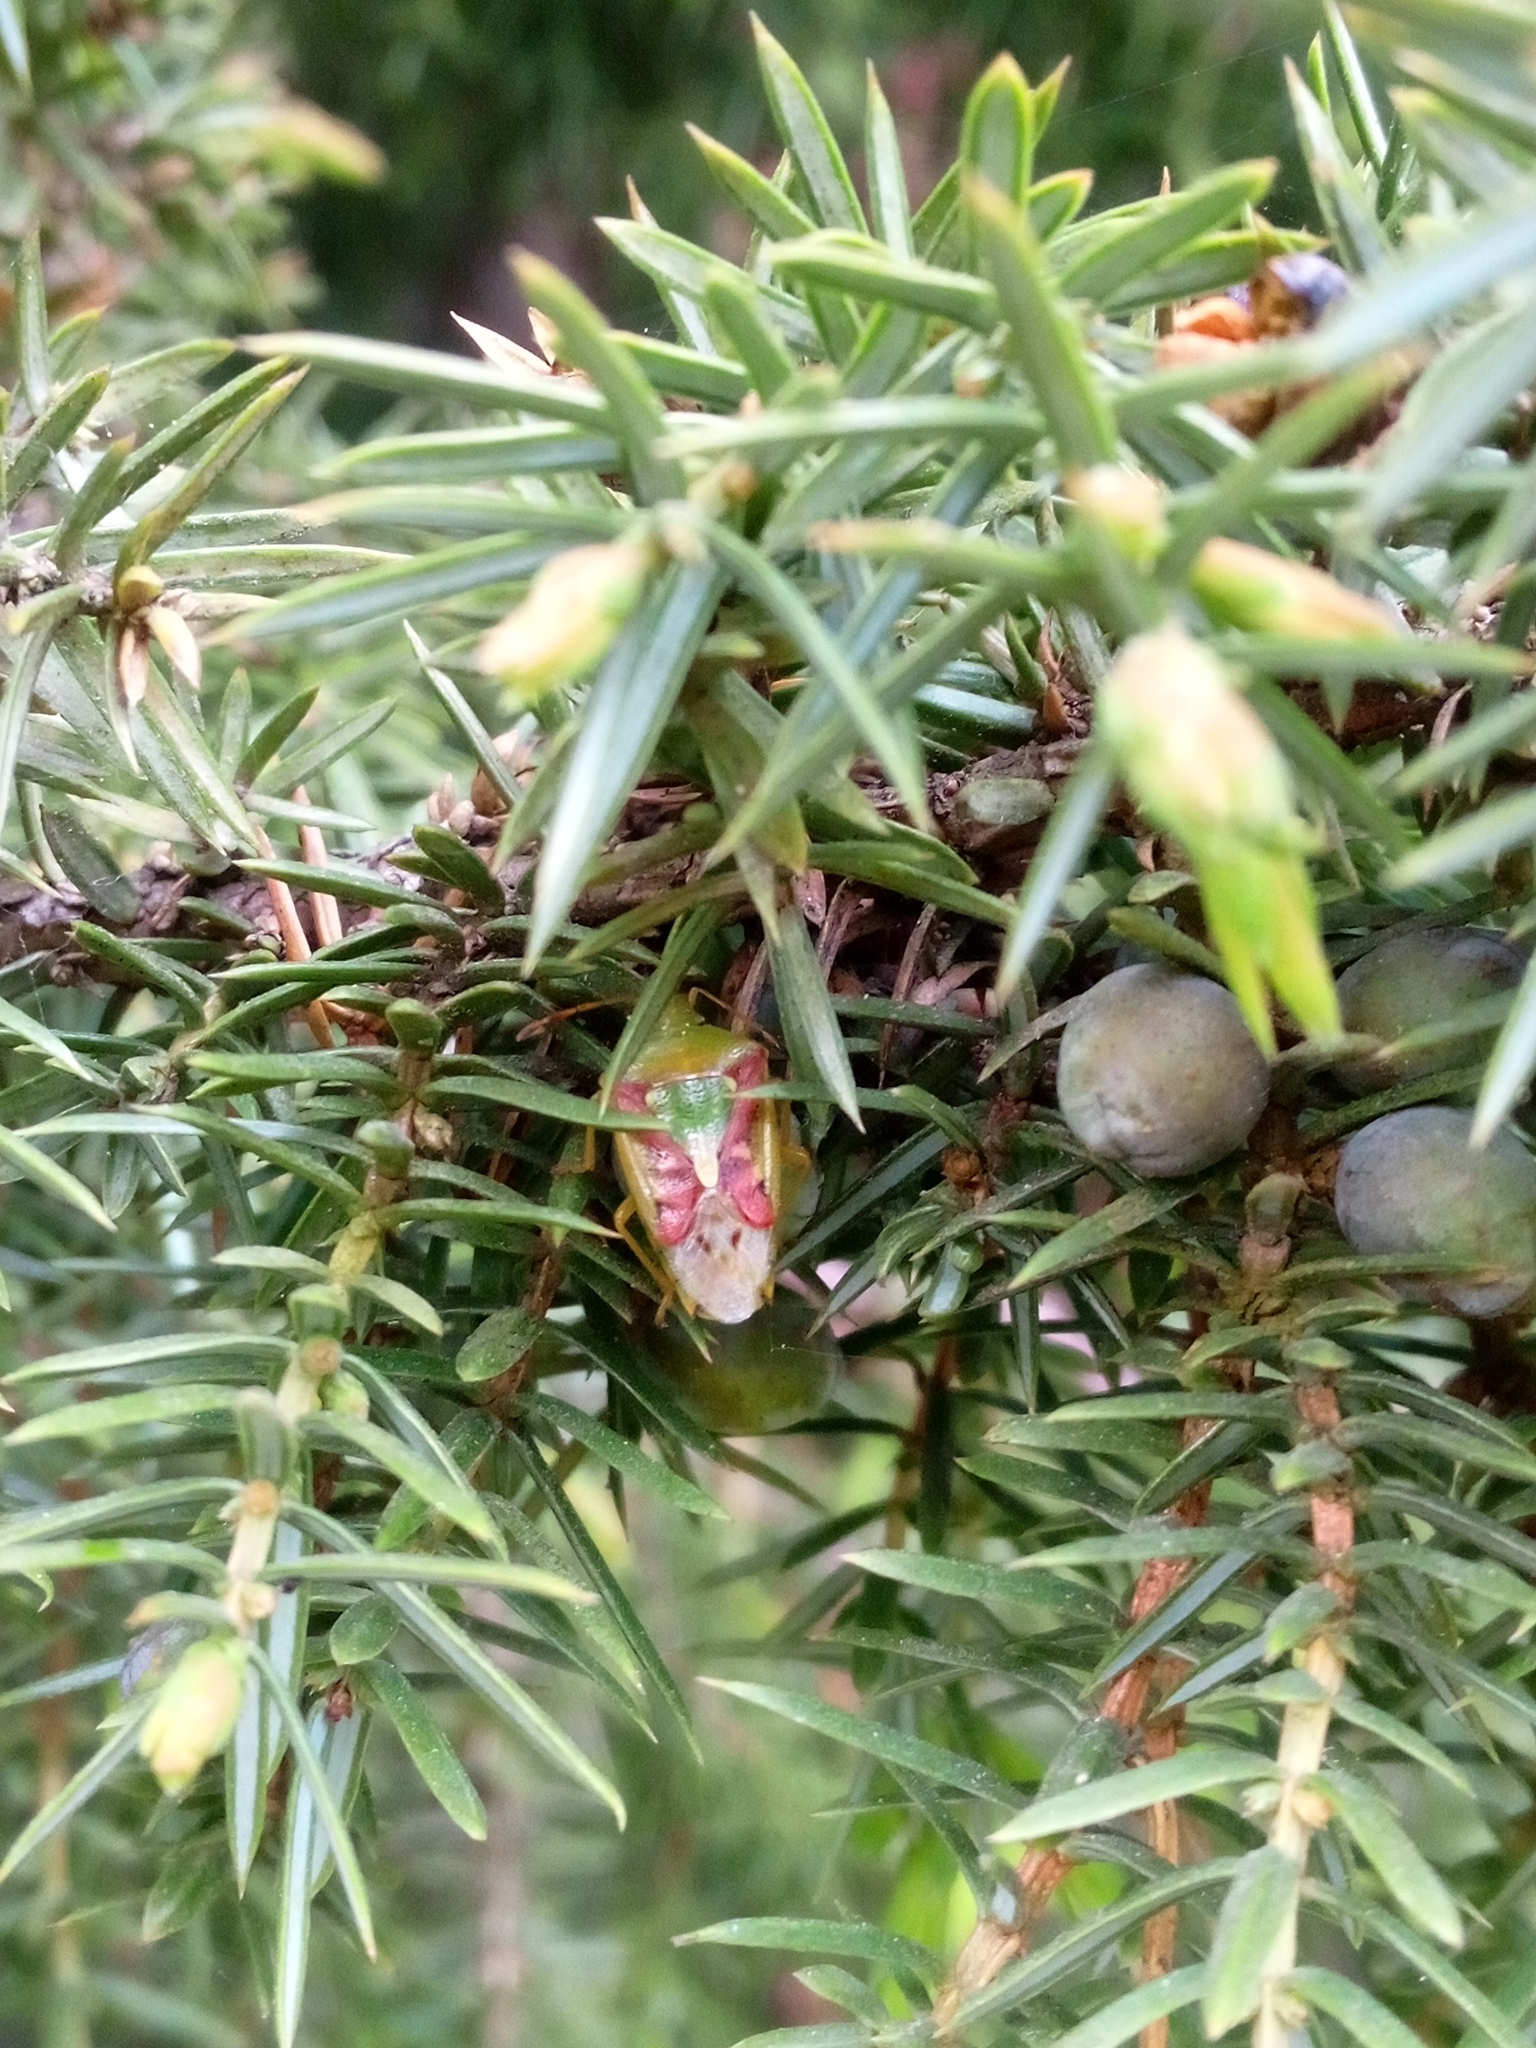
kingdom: Animalia
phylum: Arthropoda
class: Insecta
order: Hemiptera
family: Acanthosomatidae
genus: Cyphostethus
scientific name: Cyphostethus tristriatus
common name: Juniper shieldbug
